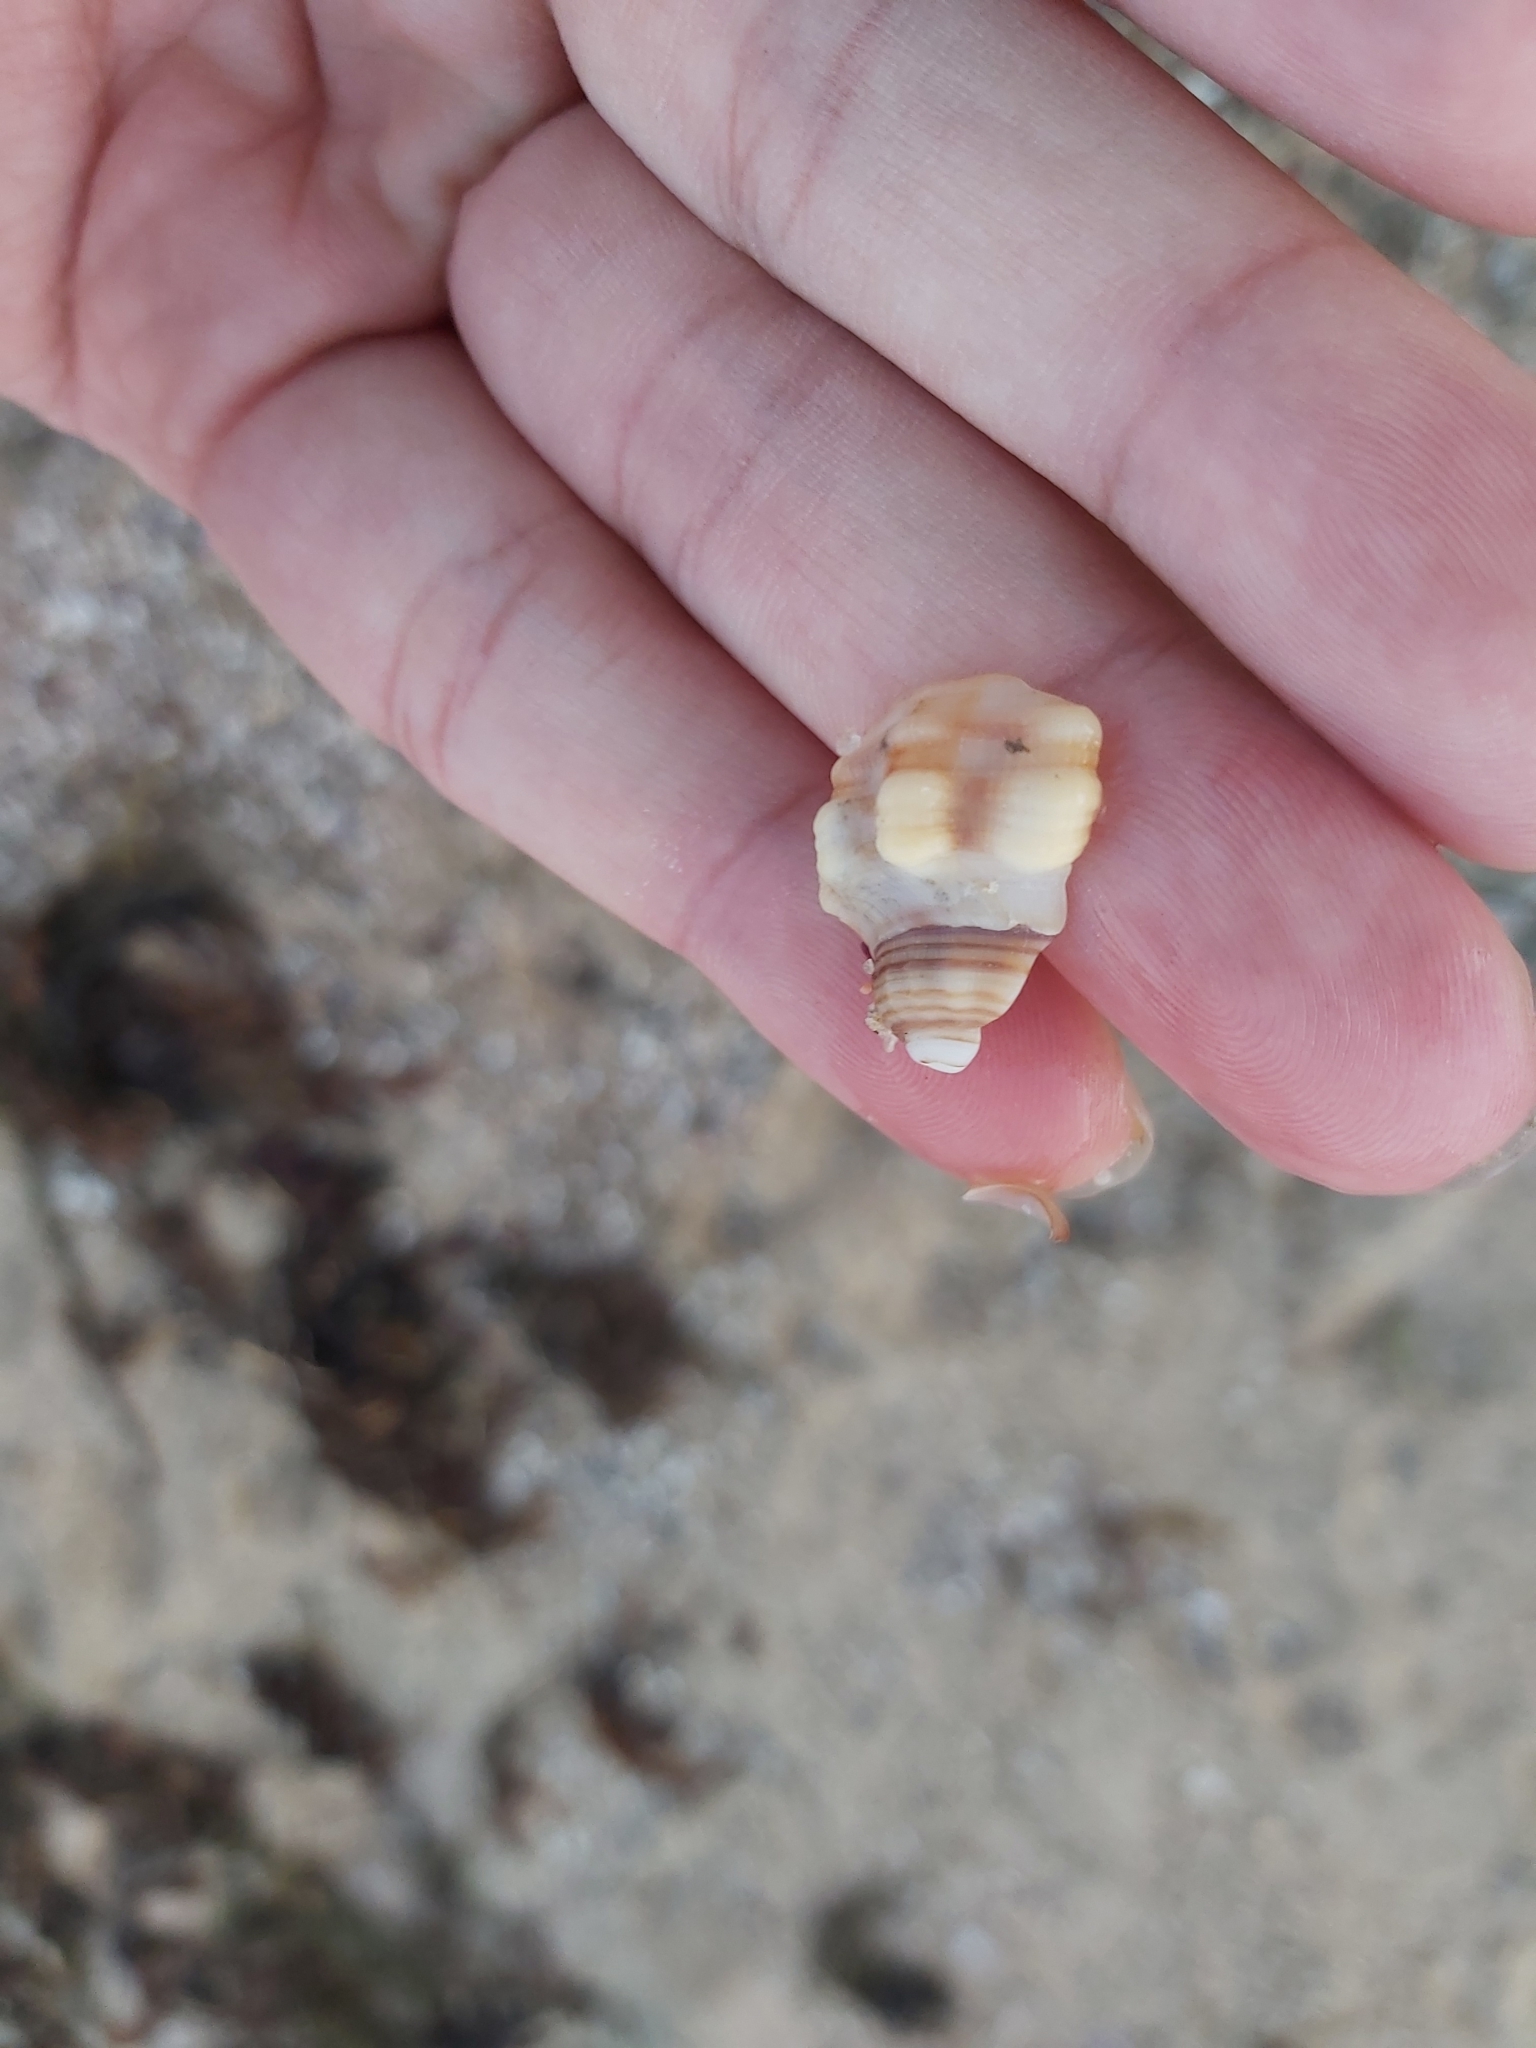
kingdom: Animalia
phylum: Mollusca
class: Gastropoda
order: Littorinimorpha
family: Cymatiidae
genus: Cabestana
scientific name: Cabestana spengleri
